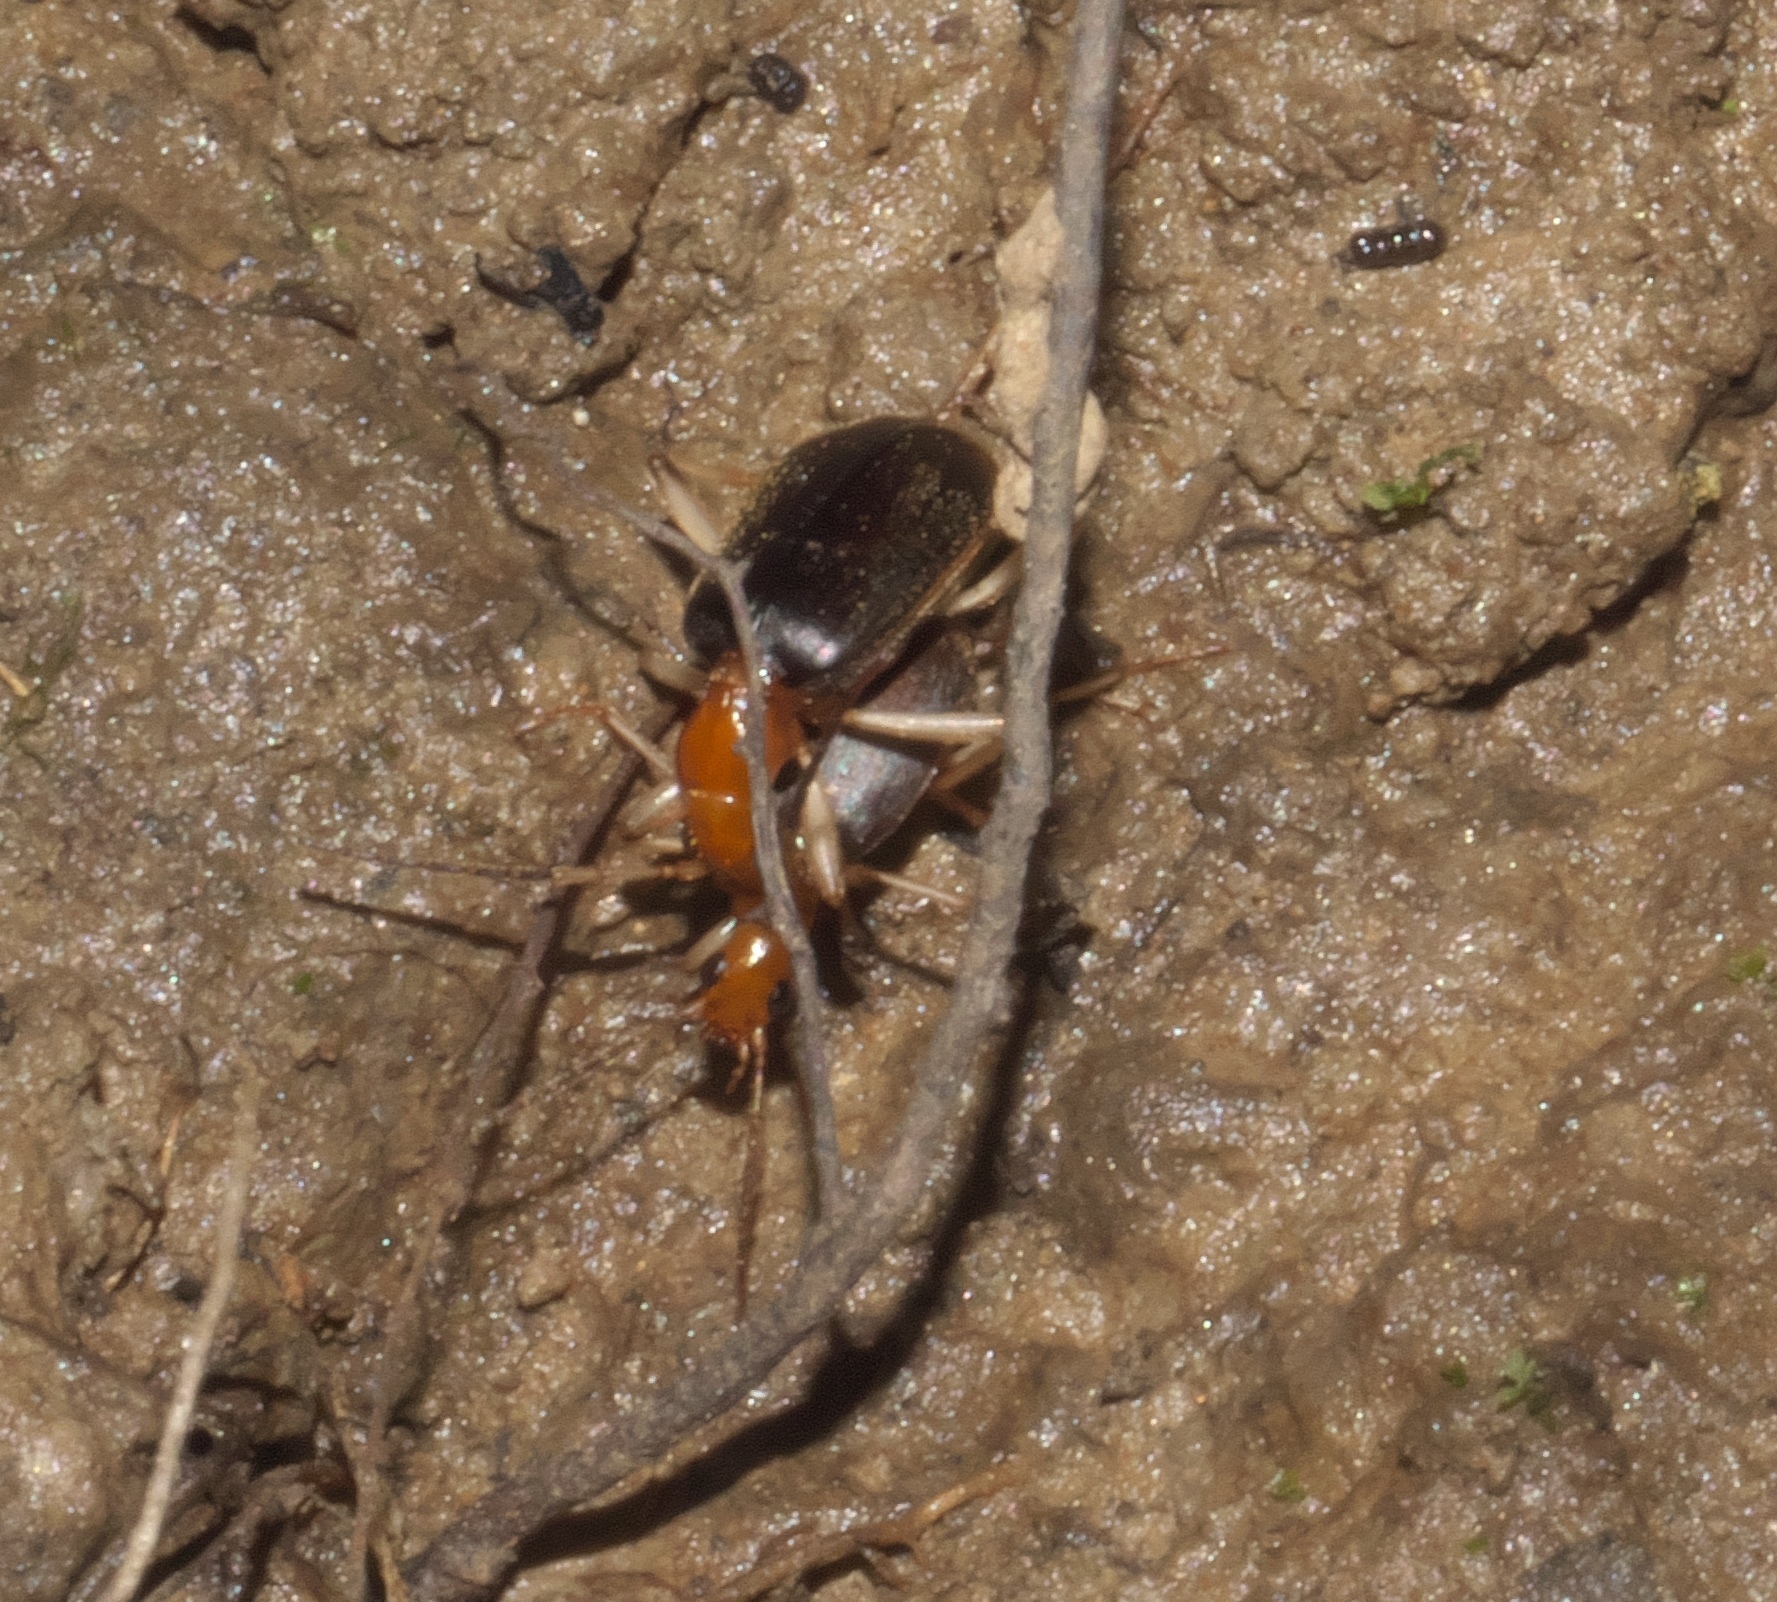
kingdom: Animalia
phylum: Arthropoda
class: Insecta
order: Coleoptera
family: Carabidae
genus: Brachinus
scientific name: Brachinus adustipennis
